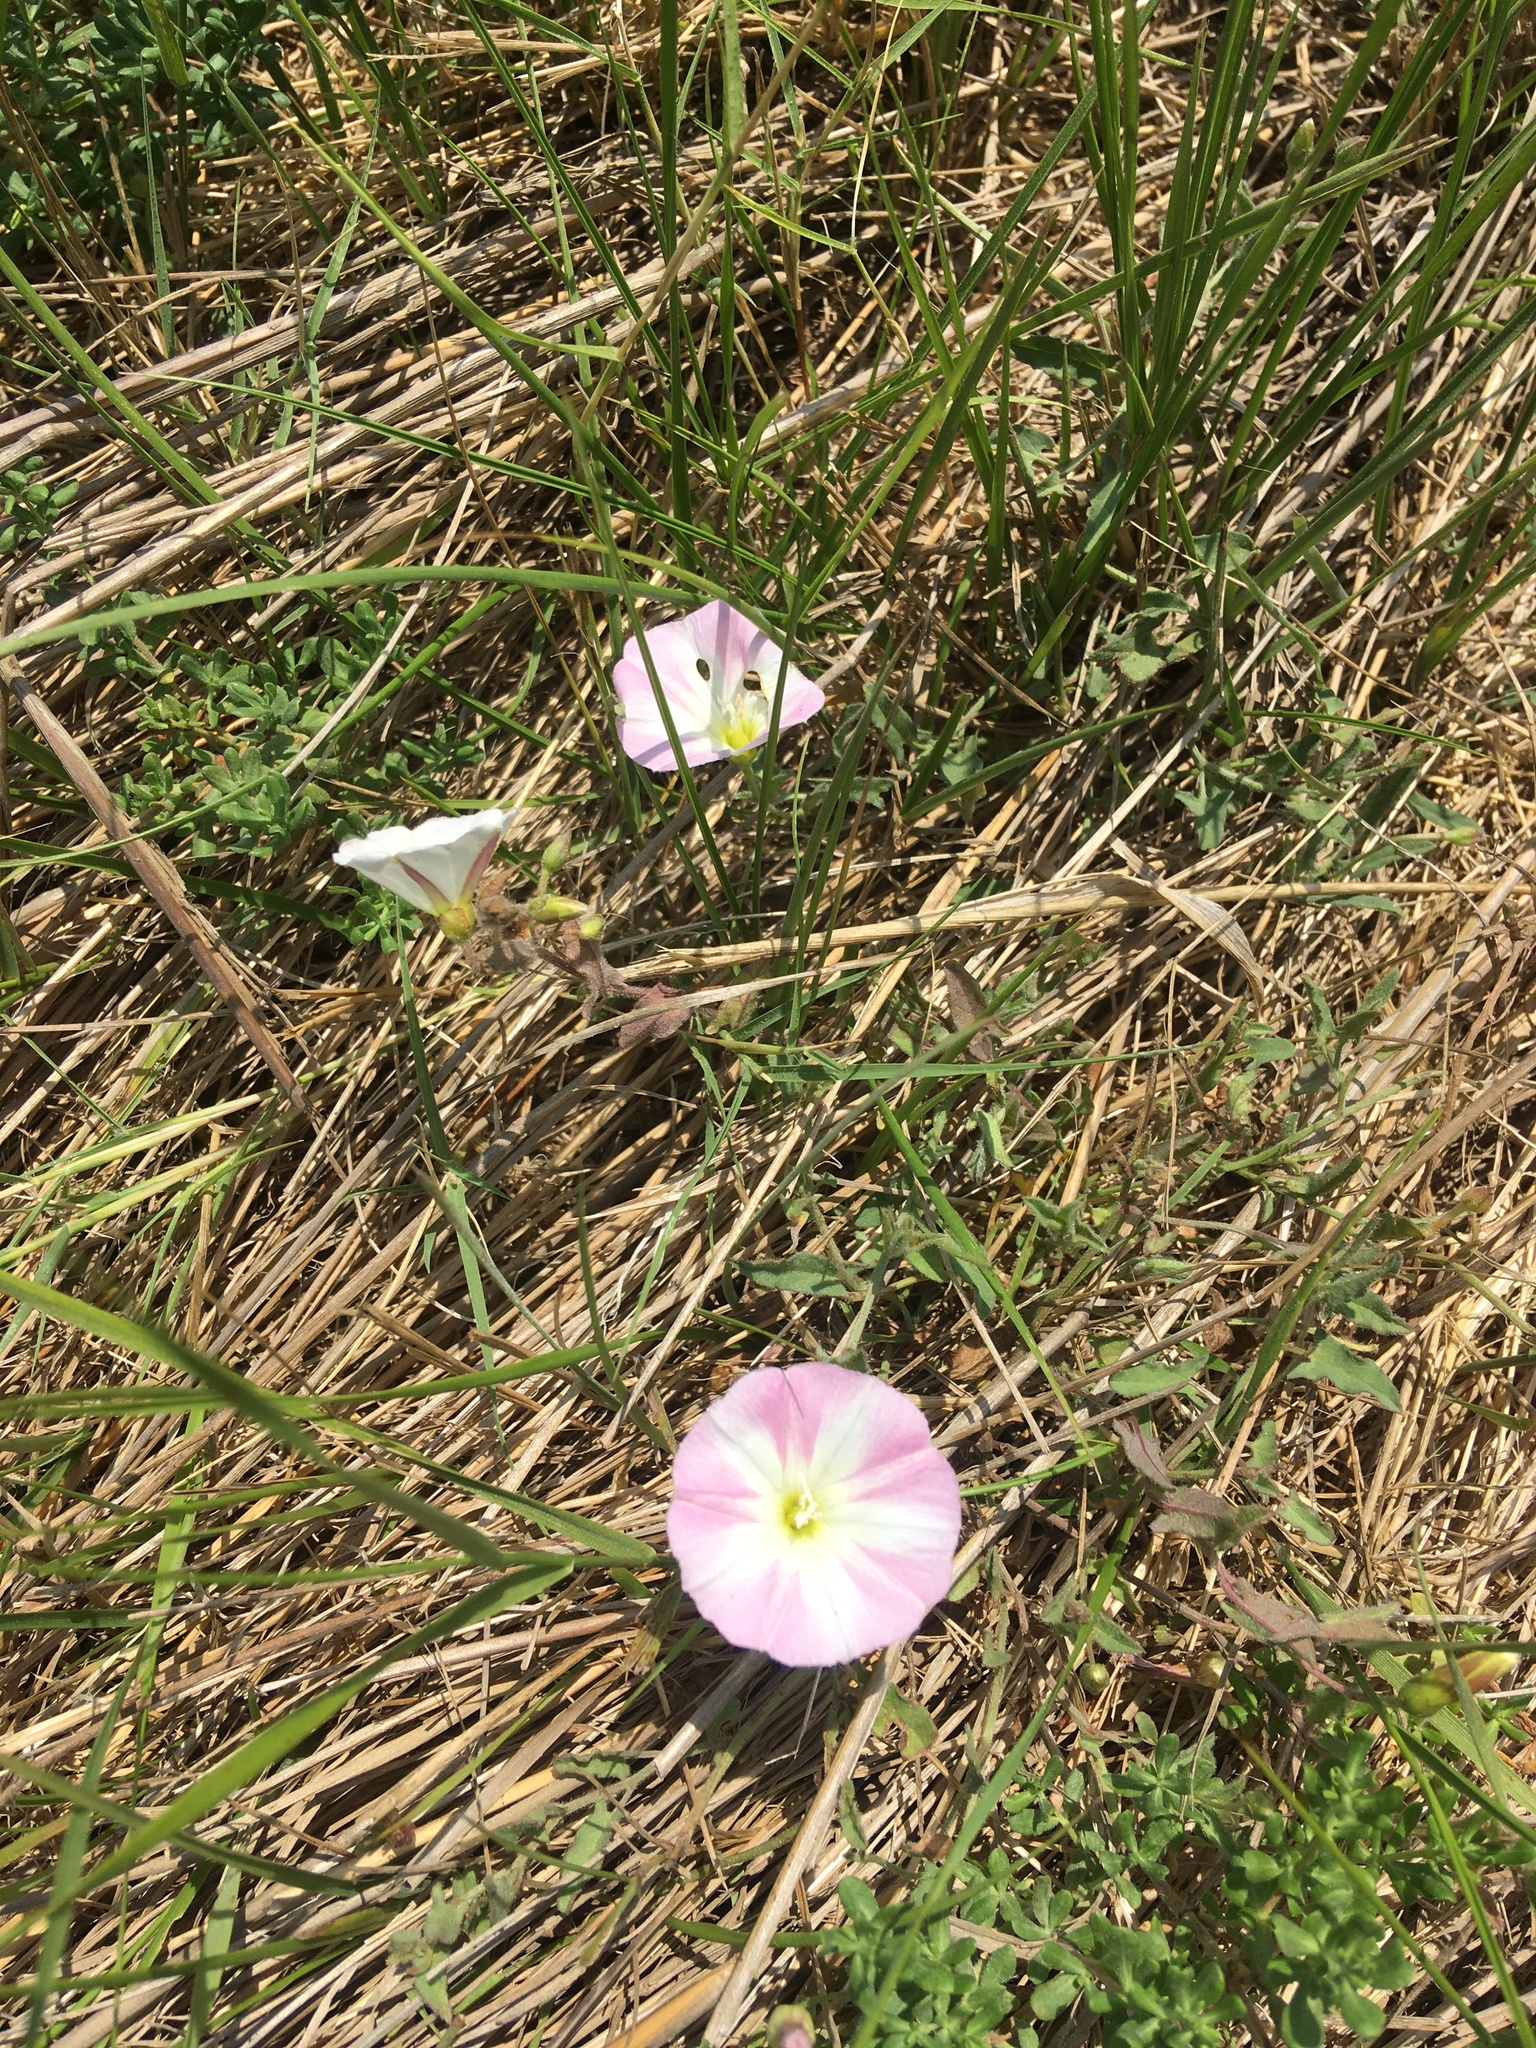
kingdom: Plantae
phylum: Tracheophyta
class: Magnoliopsida
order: Solanales
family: Convolvulaceae
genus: Convolvulus
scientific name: Convolvulus arvensis
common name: Field bindweed
